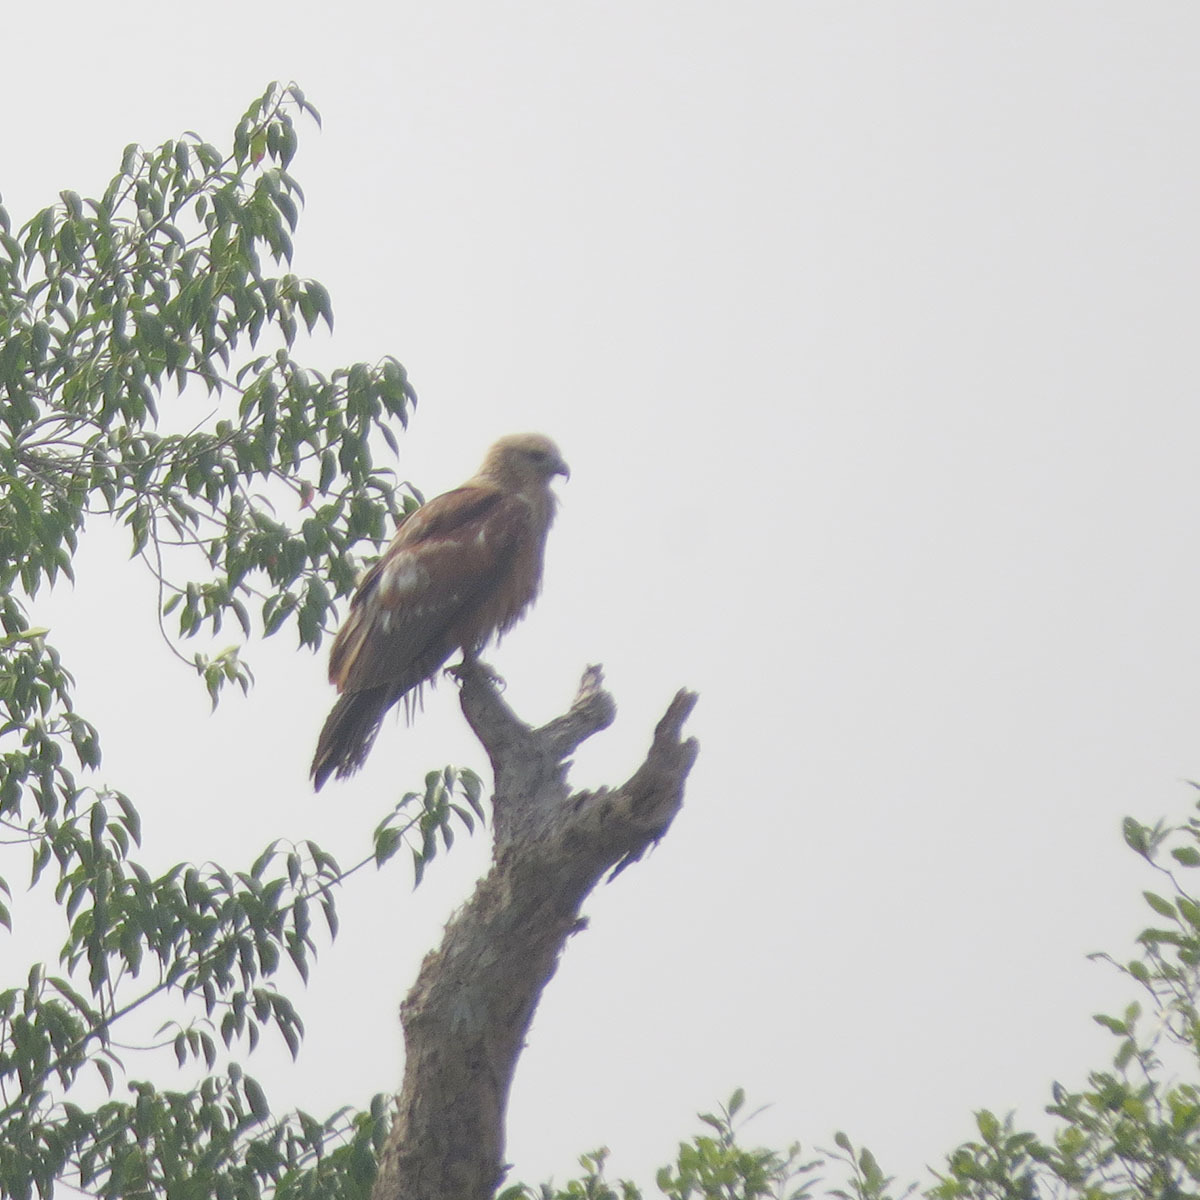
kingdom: Animalia
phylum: Chordata
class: Aves
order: Accipitriformes
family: Accipitridae
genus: Haliastur
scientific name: Haliastur indus
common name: Brahminy kite
